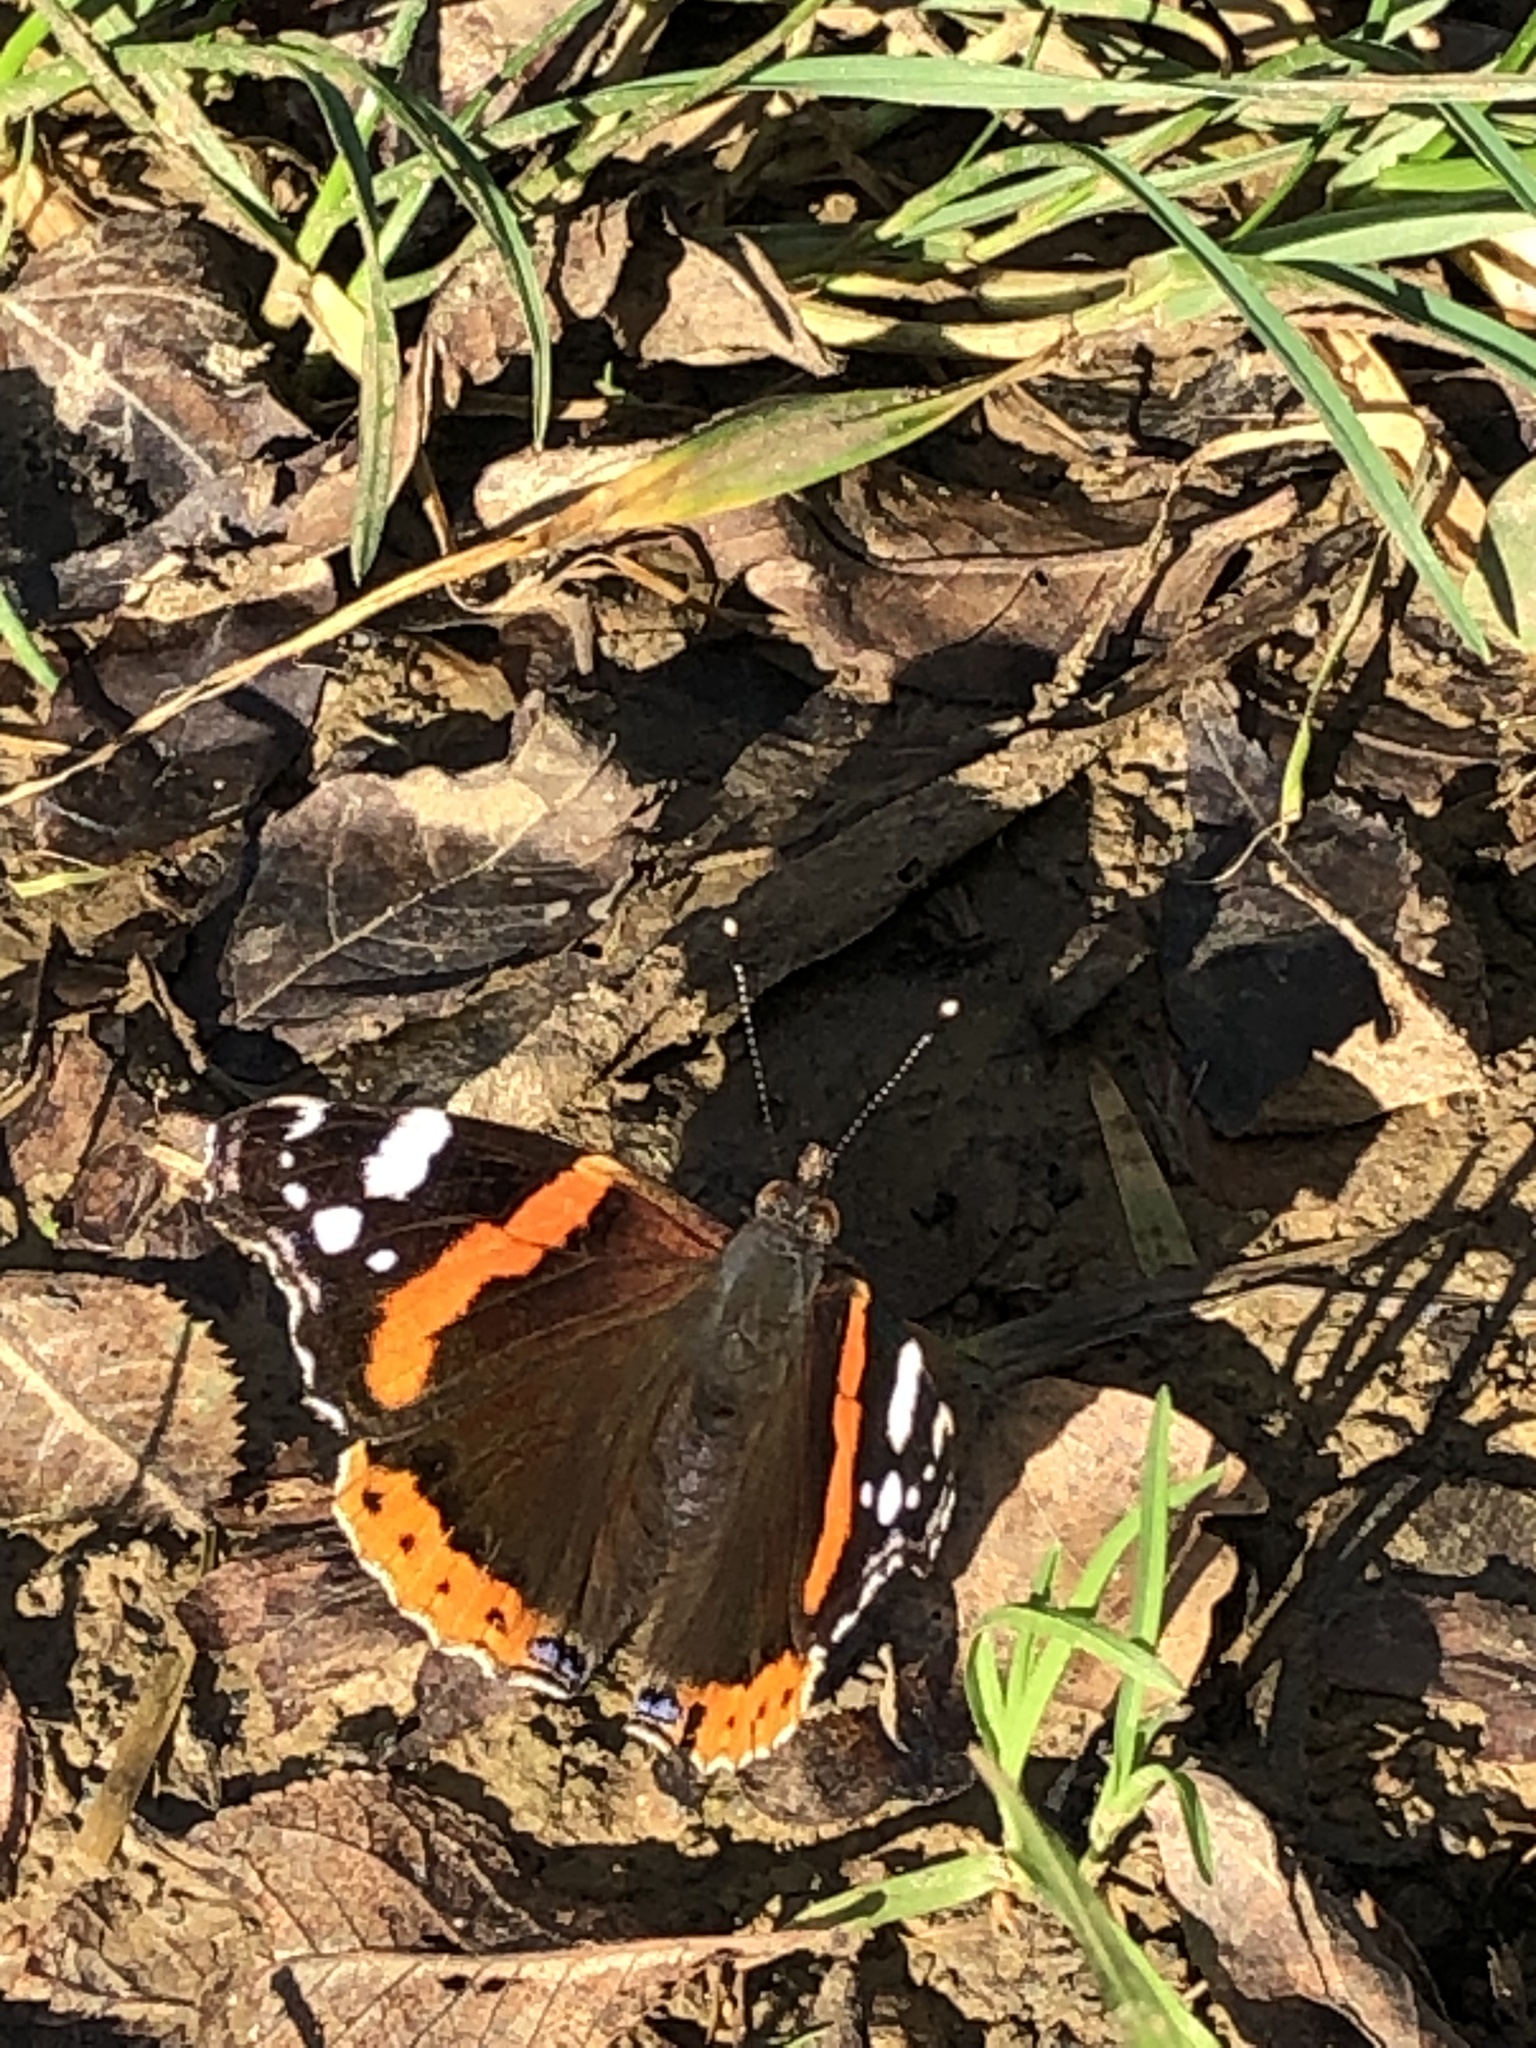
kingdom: Animalia
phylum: Arthropoda
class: Insecta
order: Lepidoptera
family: Nymphalidae
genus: Vanessa
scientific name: Vanessa atalanta
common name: Red admiral
